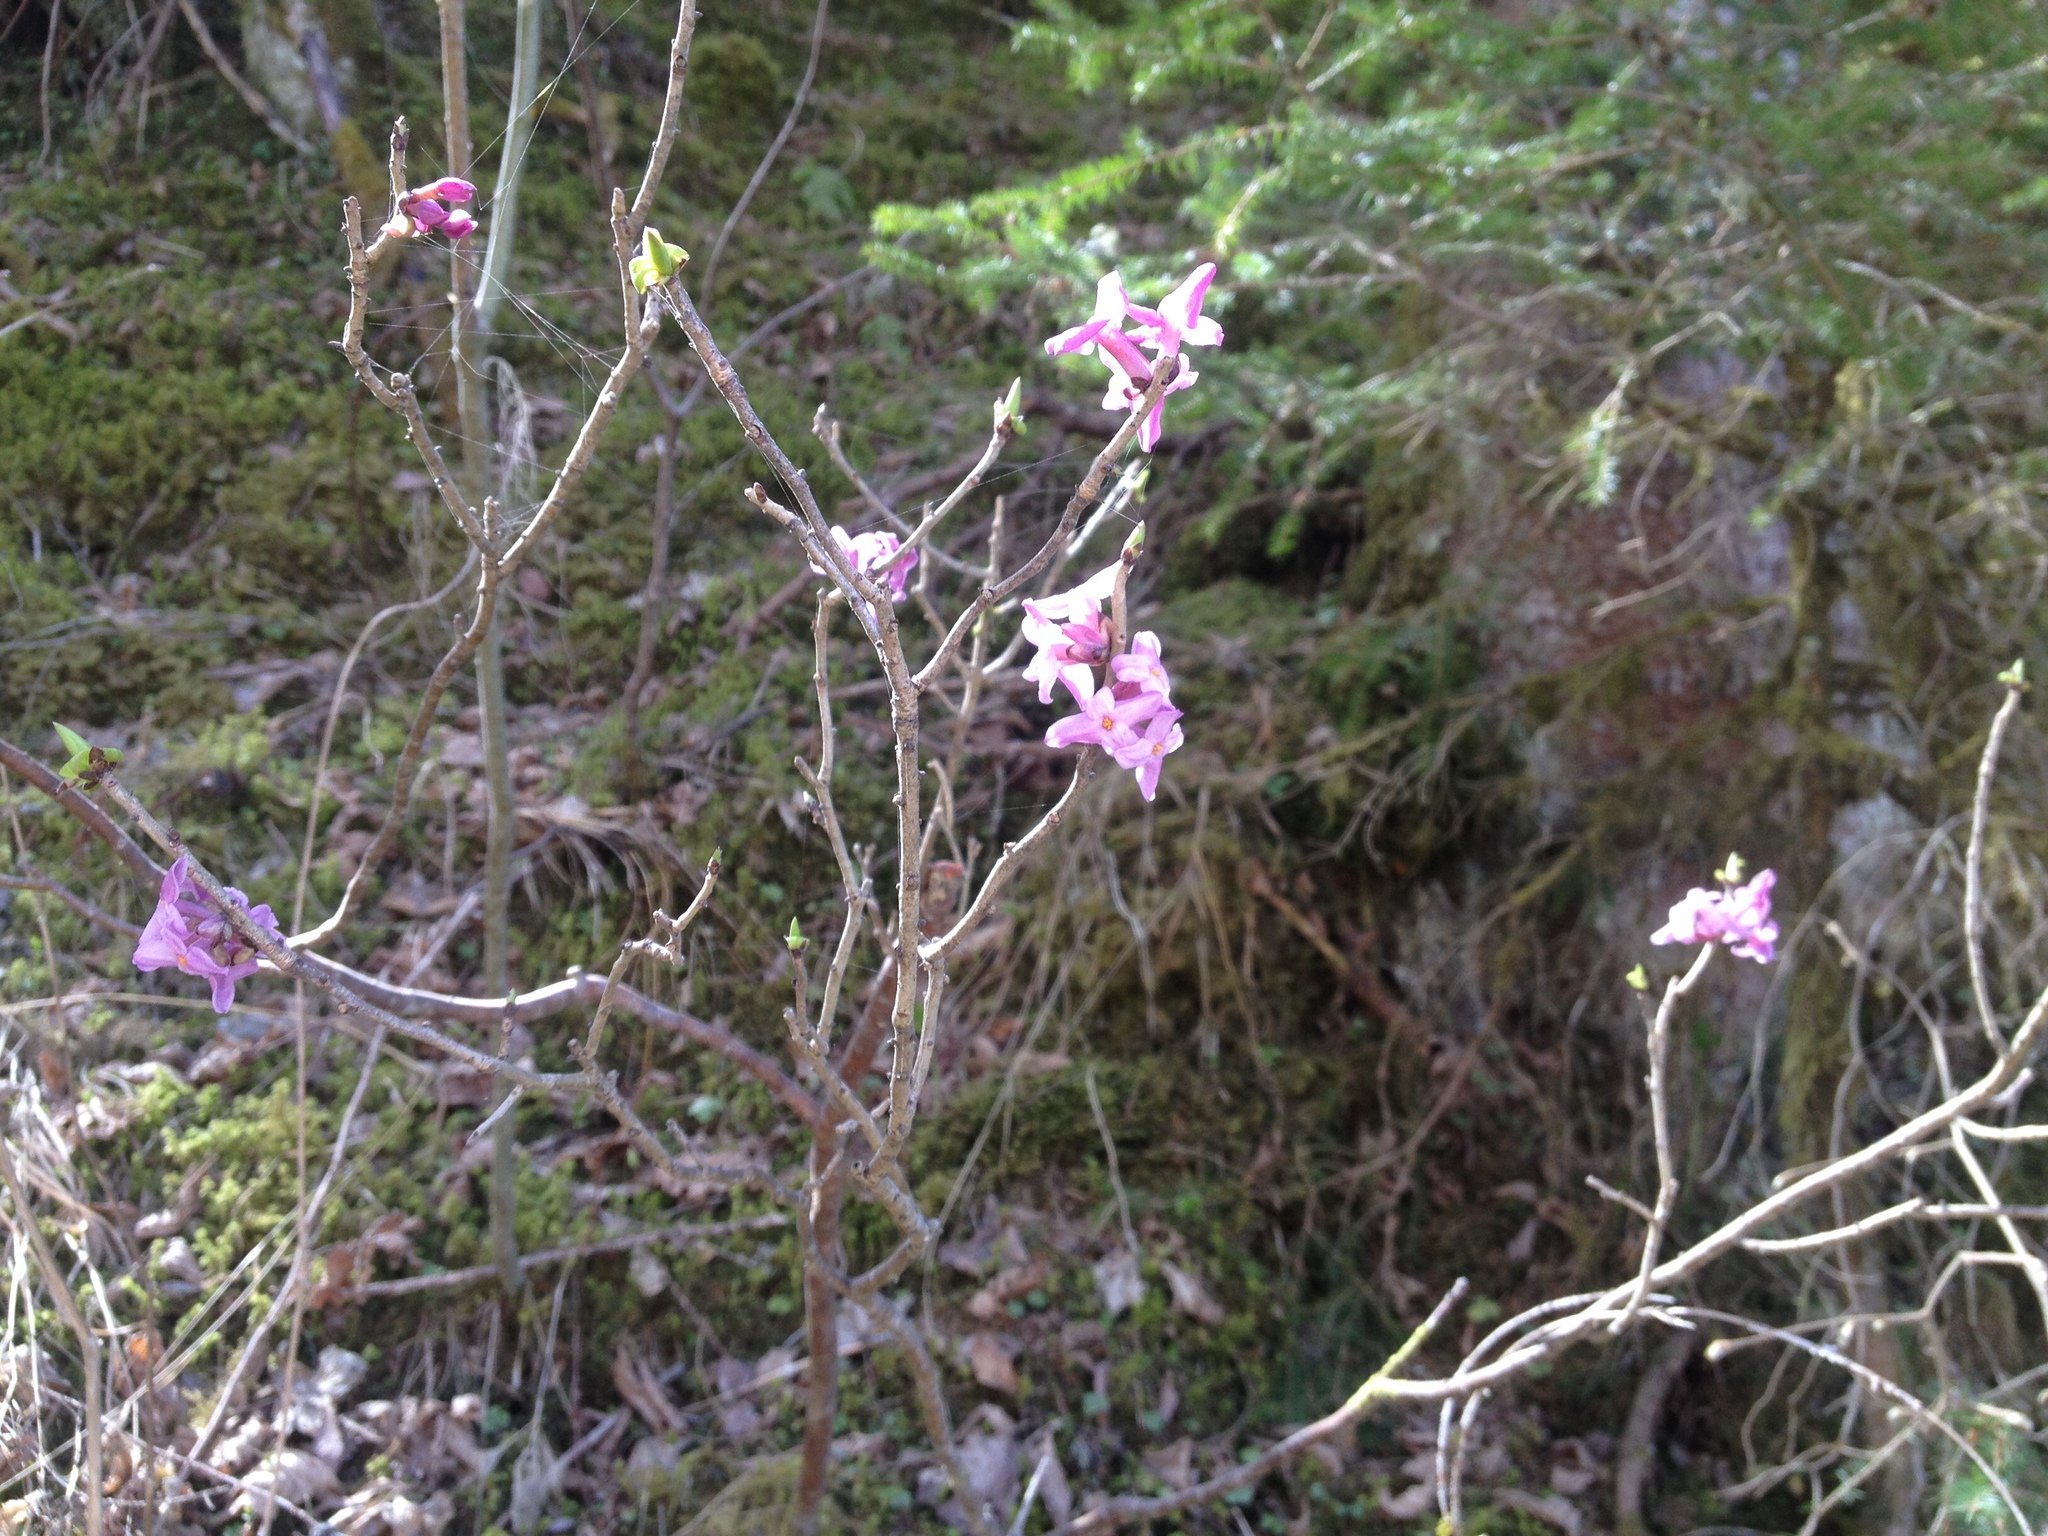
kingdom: Plantae
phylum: Tracheophyta
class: Magnoliopsida
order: Malvales
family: Thymelaeaceae
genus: Daphne
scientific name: Daphne mezereum
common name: Mezereon
